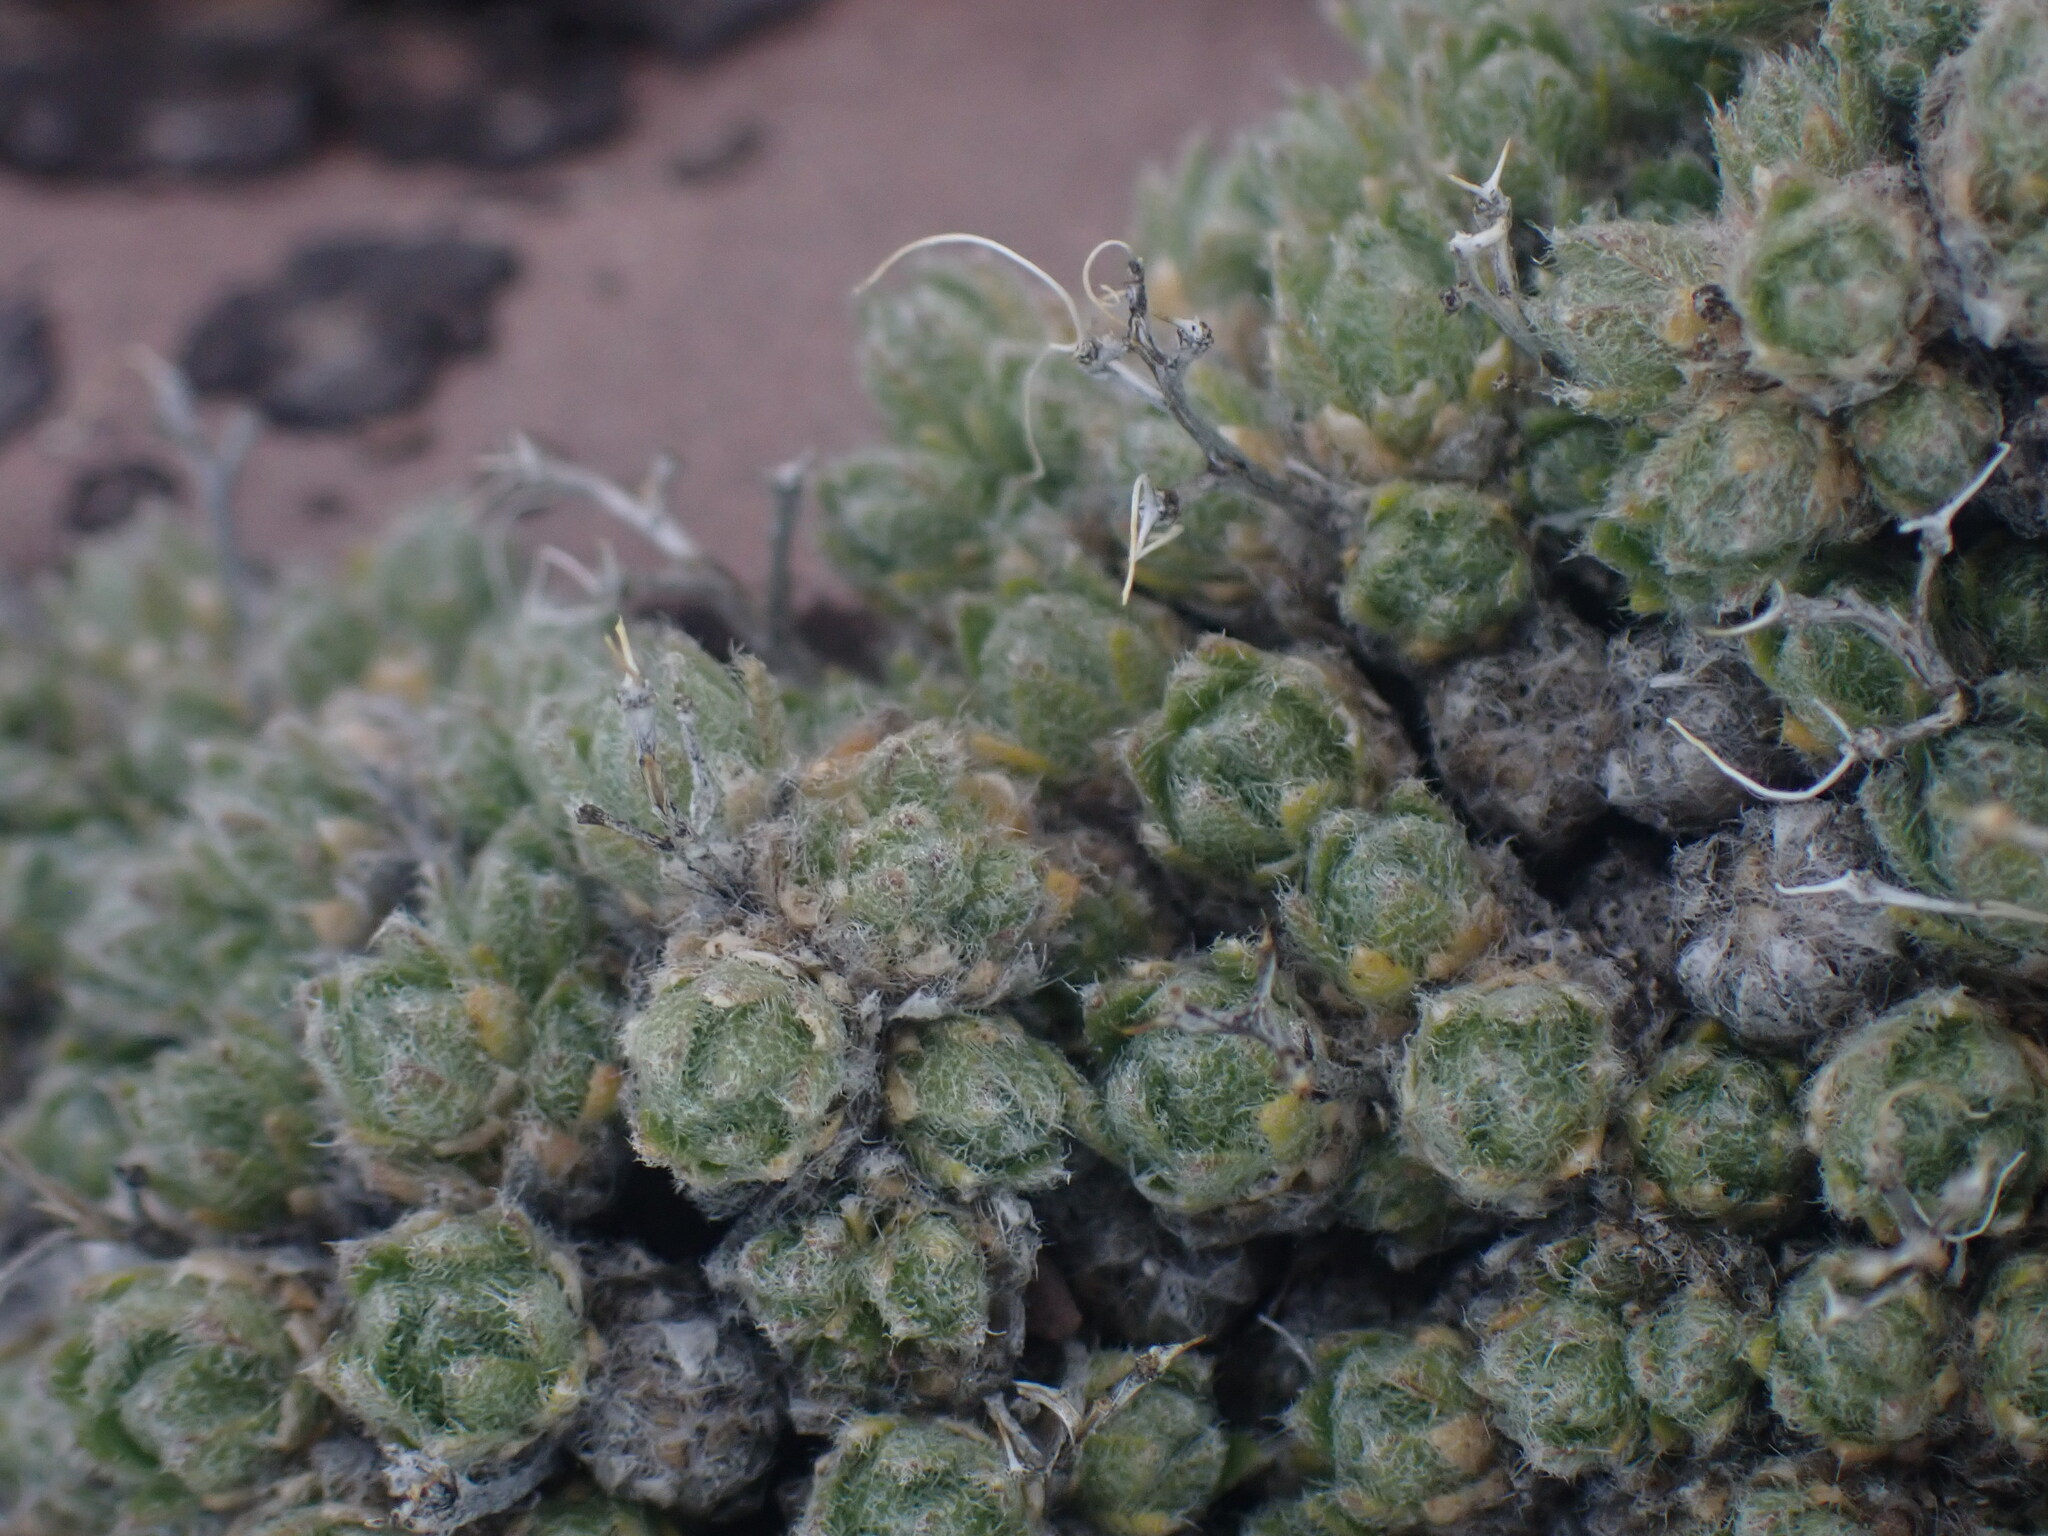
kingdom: Plantae
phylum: Tracheophyta
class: Magnoliopsida
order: Brassicales
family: Brassicaceae
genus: Draba
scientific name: Draba oligosperma
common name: Few-seed draba
